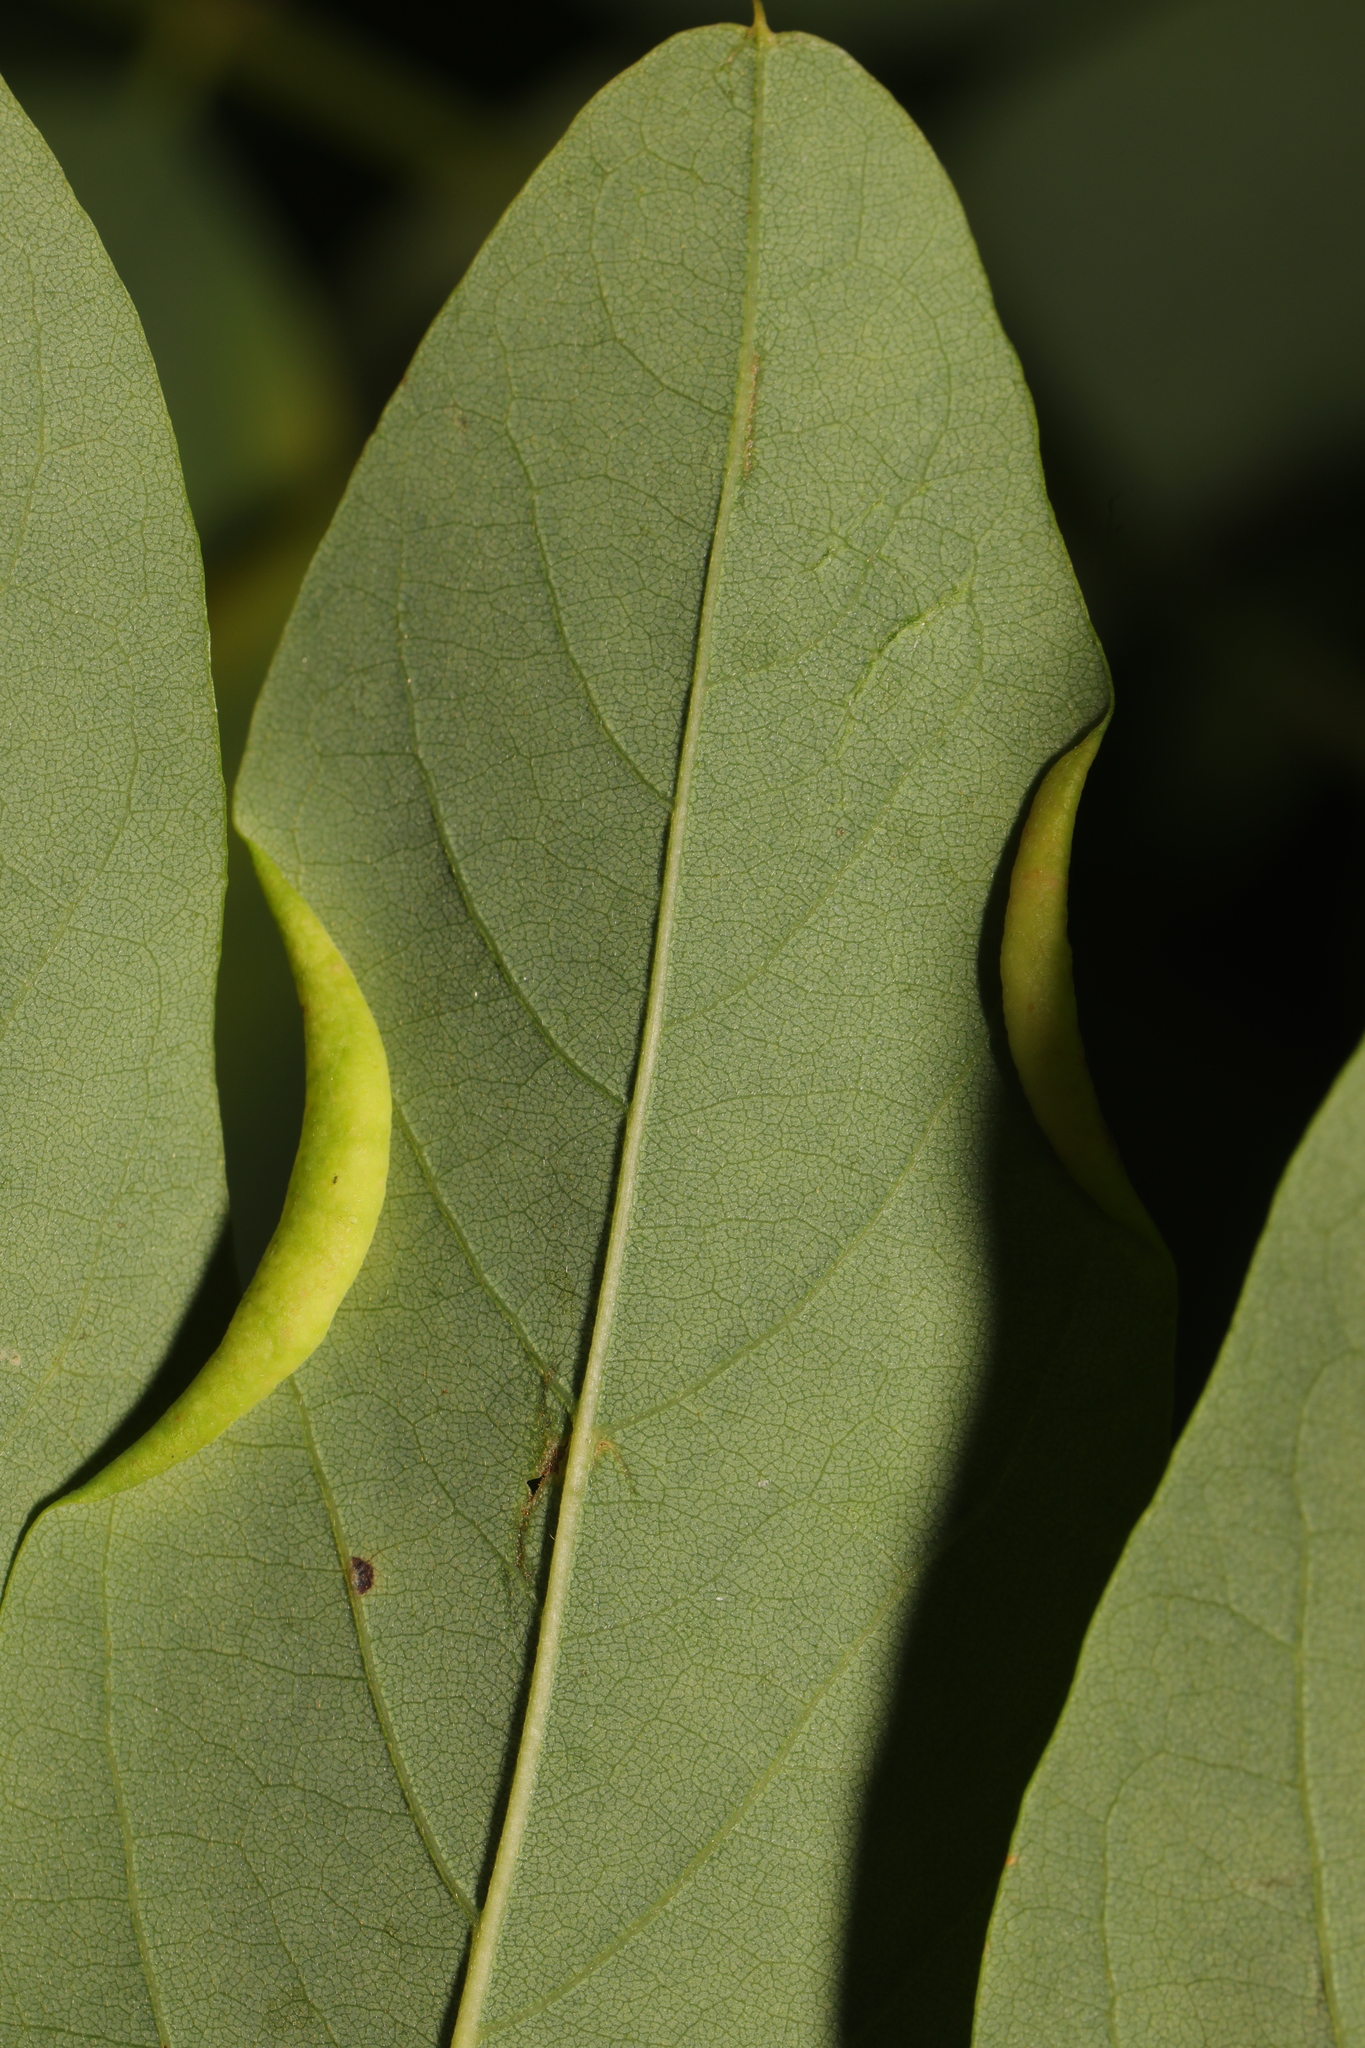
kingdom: Animalia
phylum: Arthropoda
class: Insecta
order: Diptera
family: Cecidomyiidae
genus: Obolodiplosis
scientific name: Obolodiplosis robiniae
